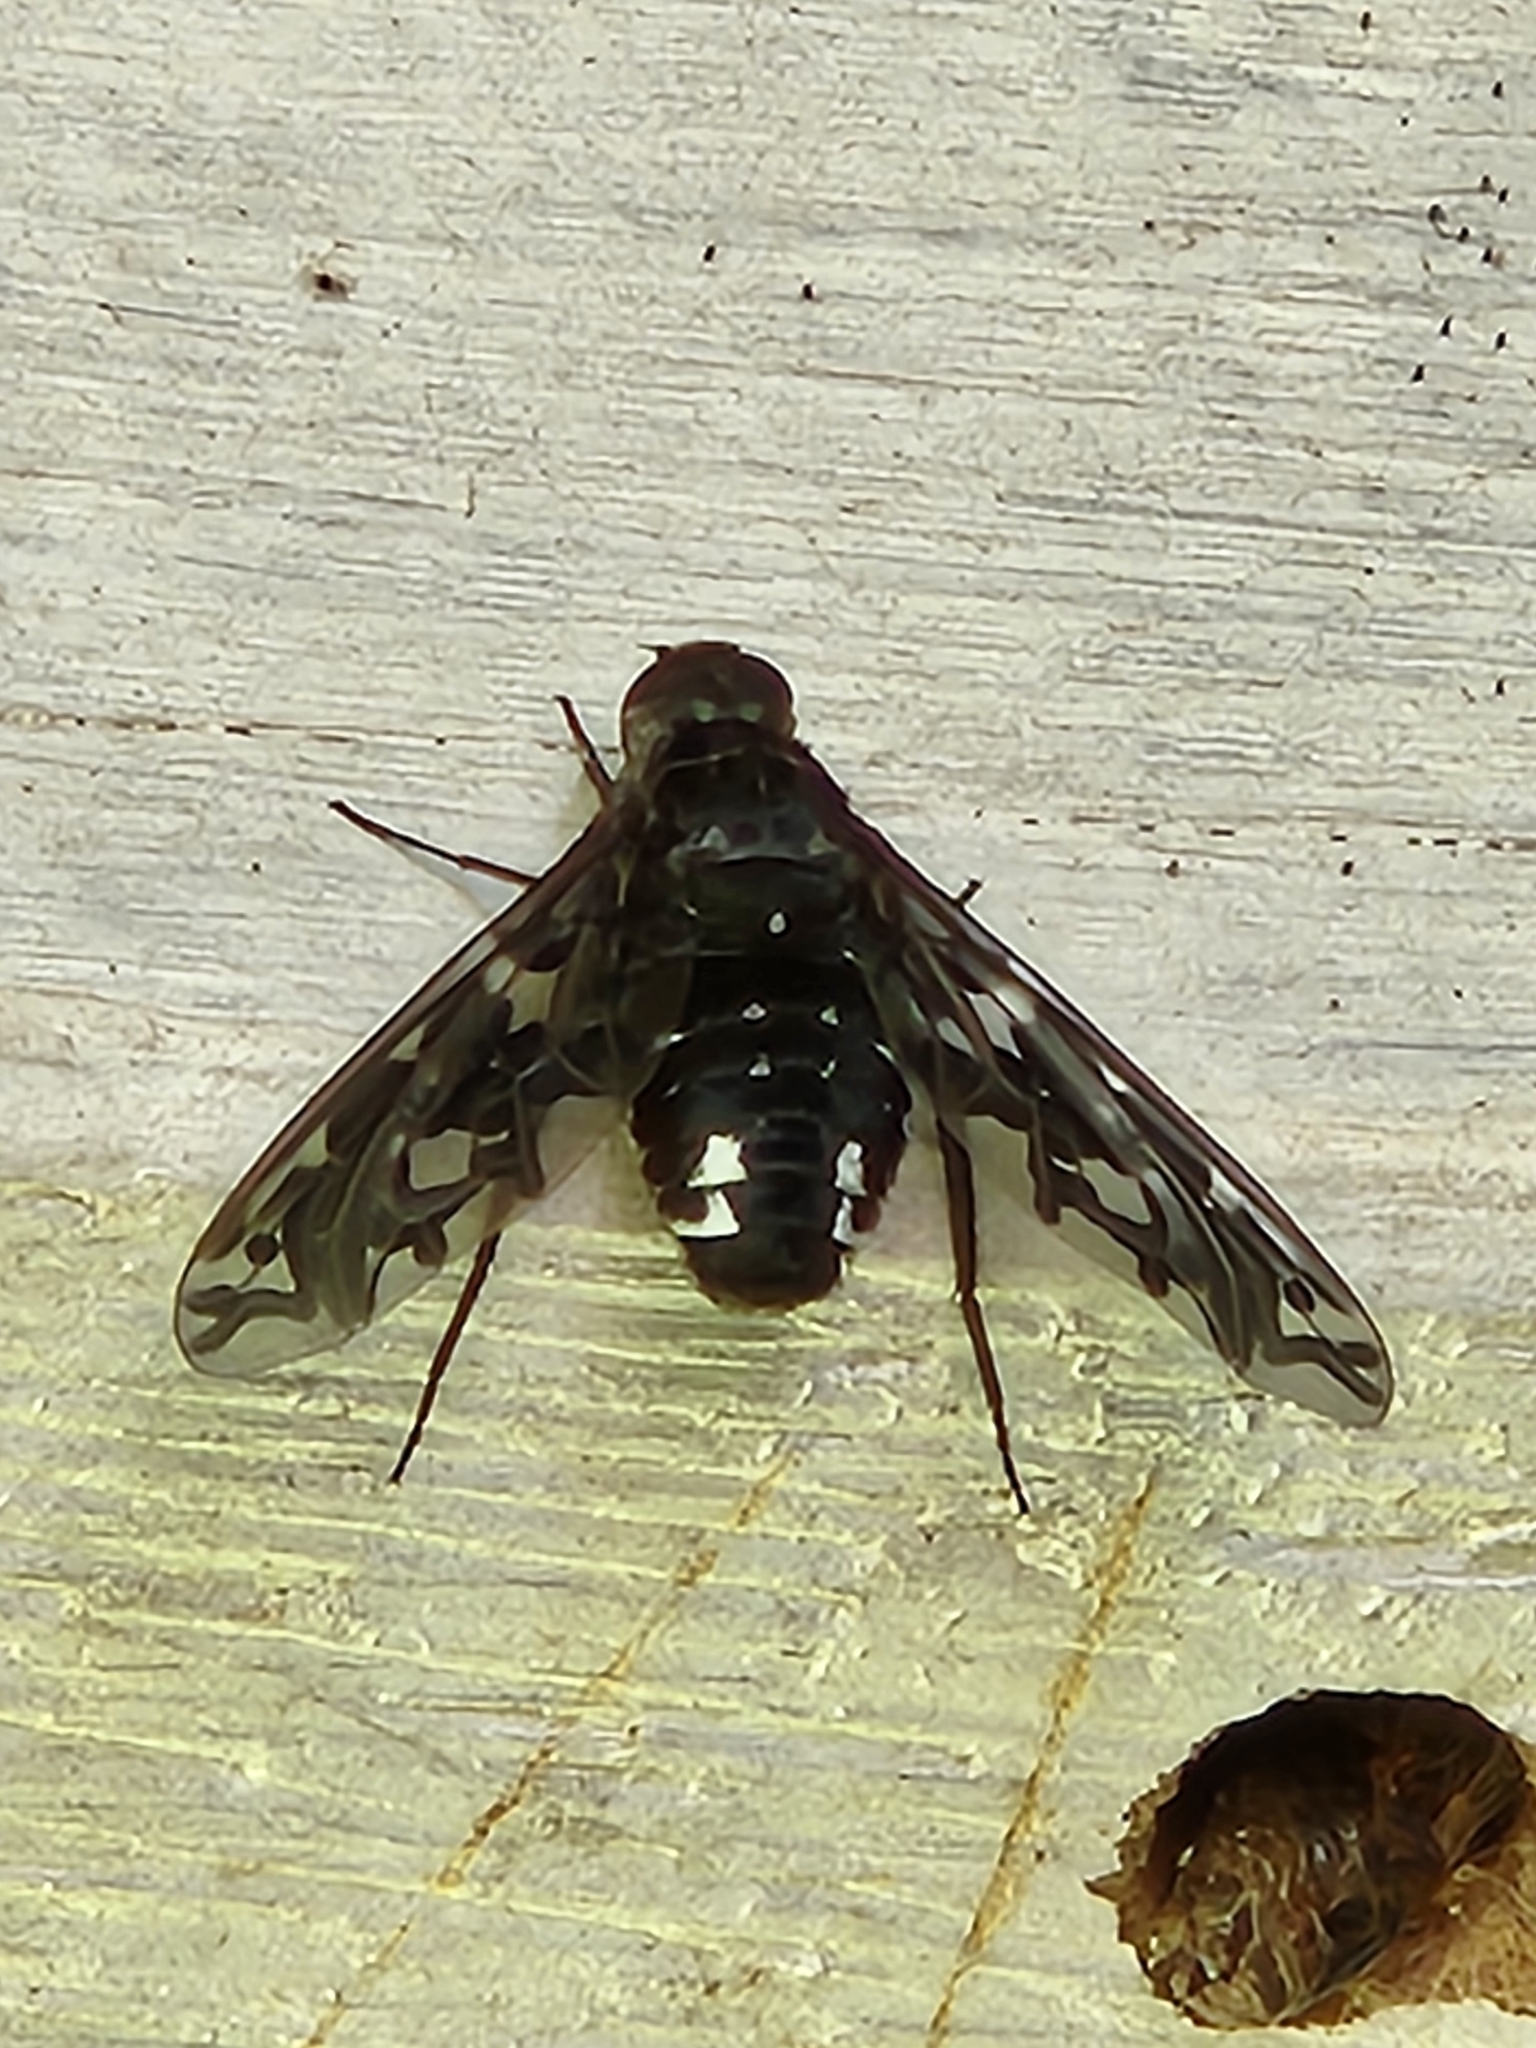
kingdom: Animalia
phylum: Arthropoda
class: Insecta
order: Diptera
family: Bombyliidae
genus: Xenox
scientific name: Xenox tigrinus
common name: Tiger bee fly
